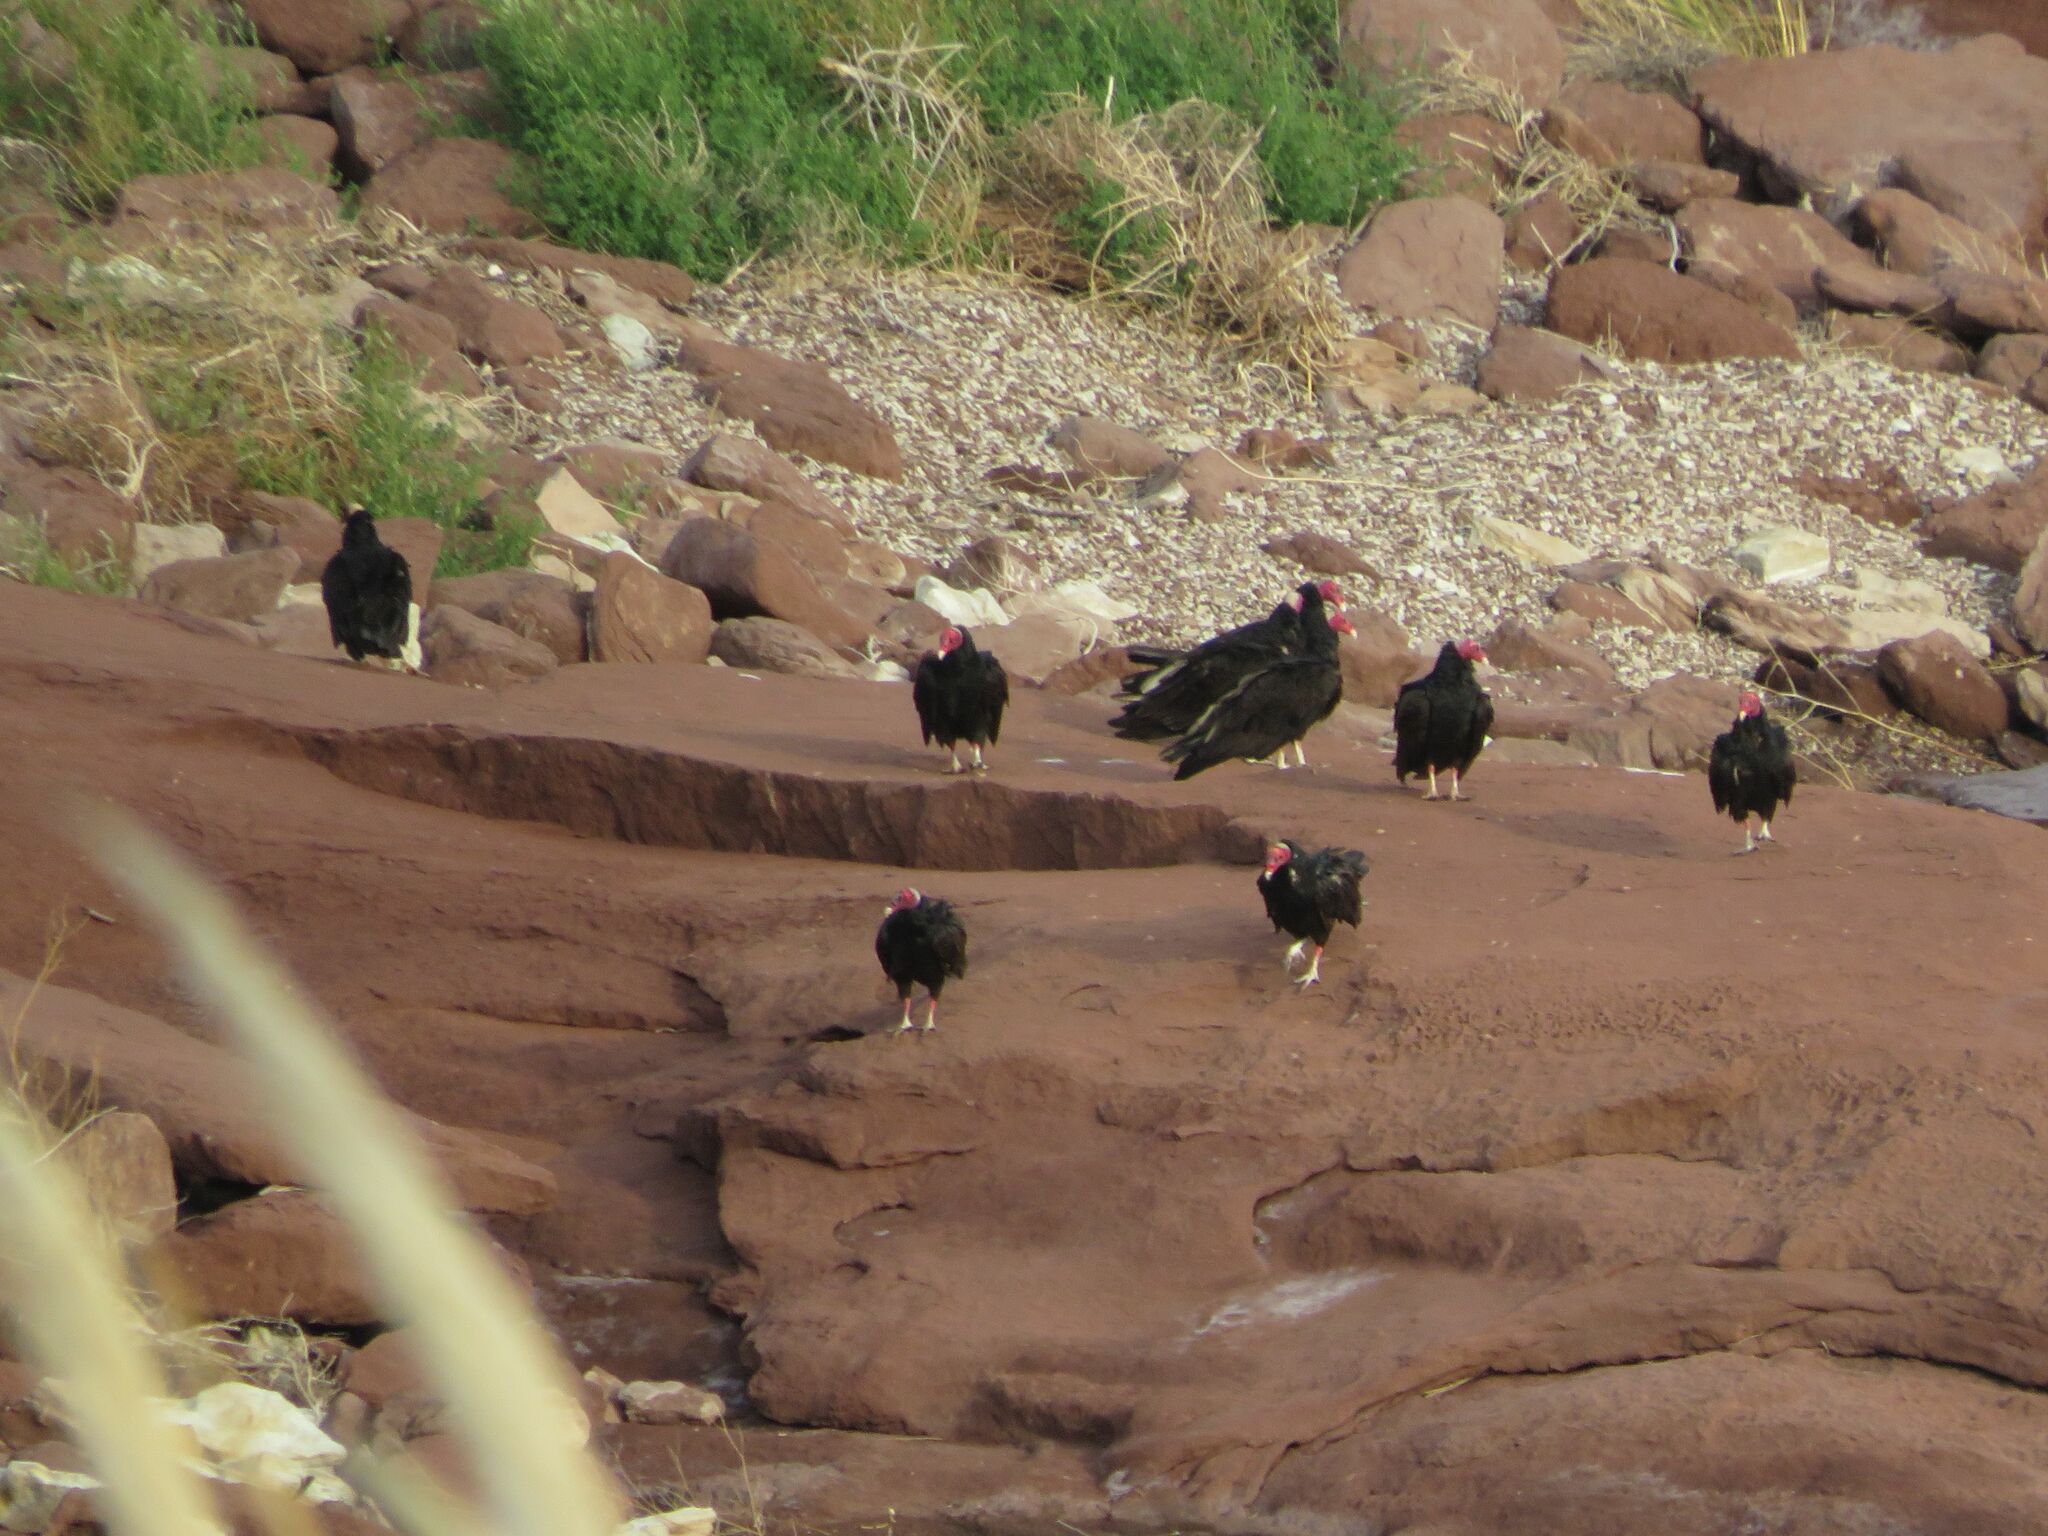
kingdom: Animalia
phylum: Chordata
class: Aves
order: Accipitriformes
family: Cathartidae
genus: Cathartes
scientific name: Cathartes aura
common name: Turkey vulture
